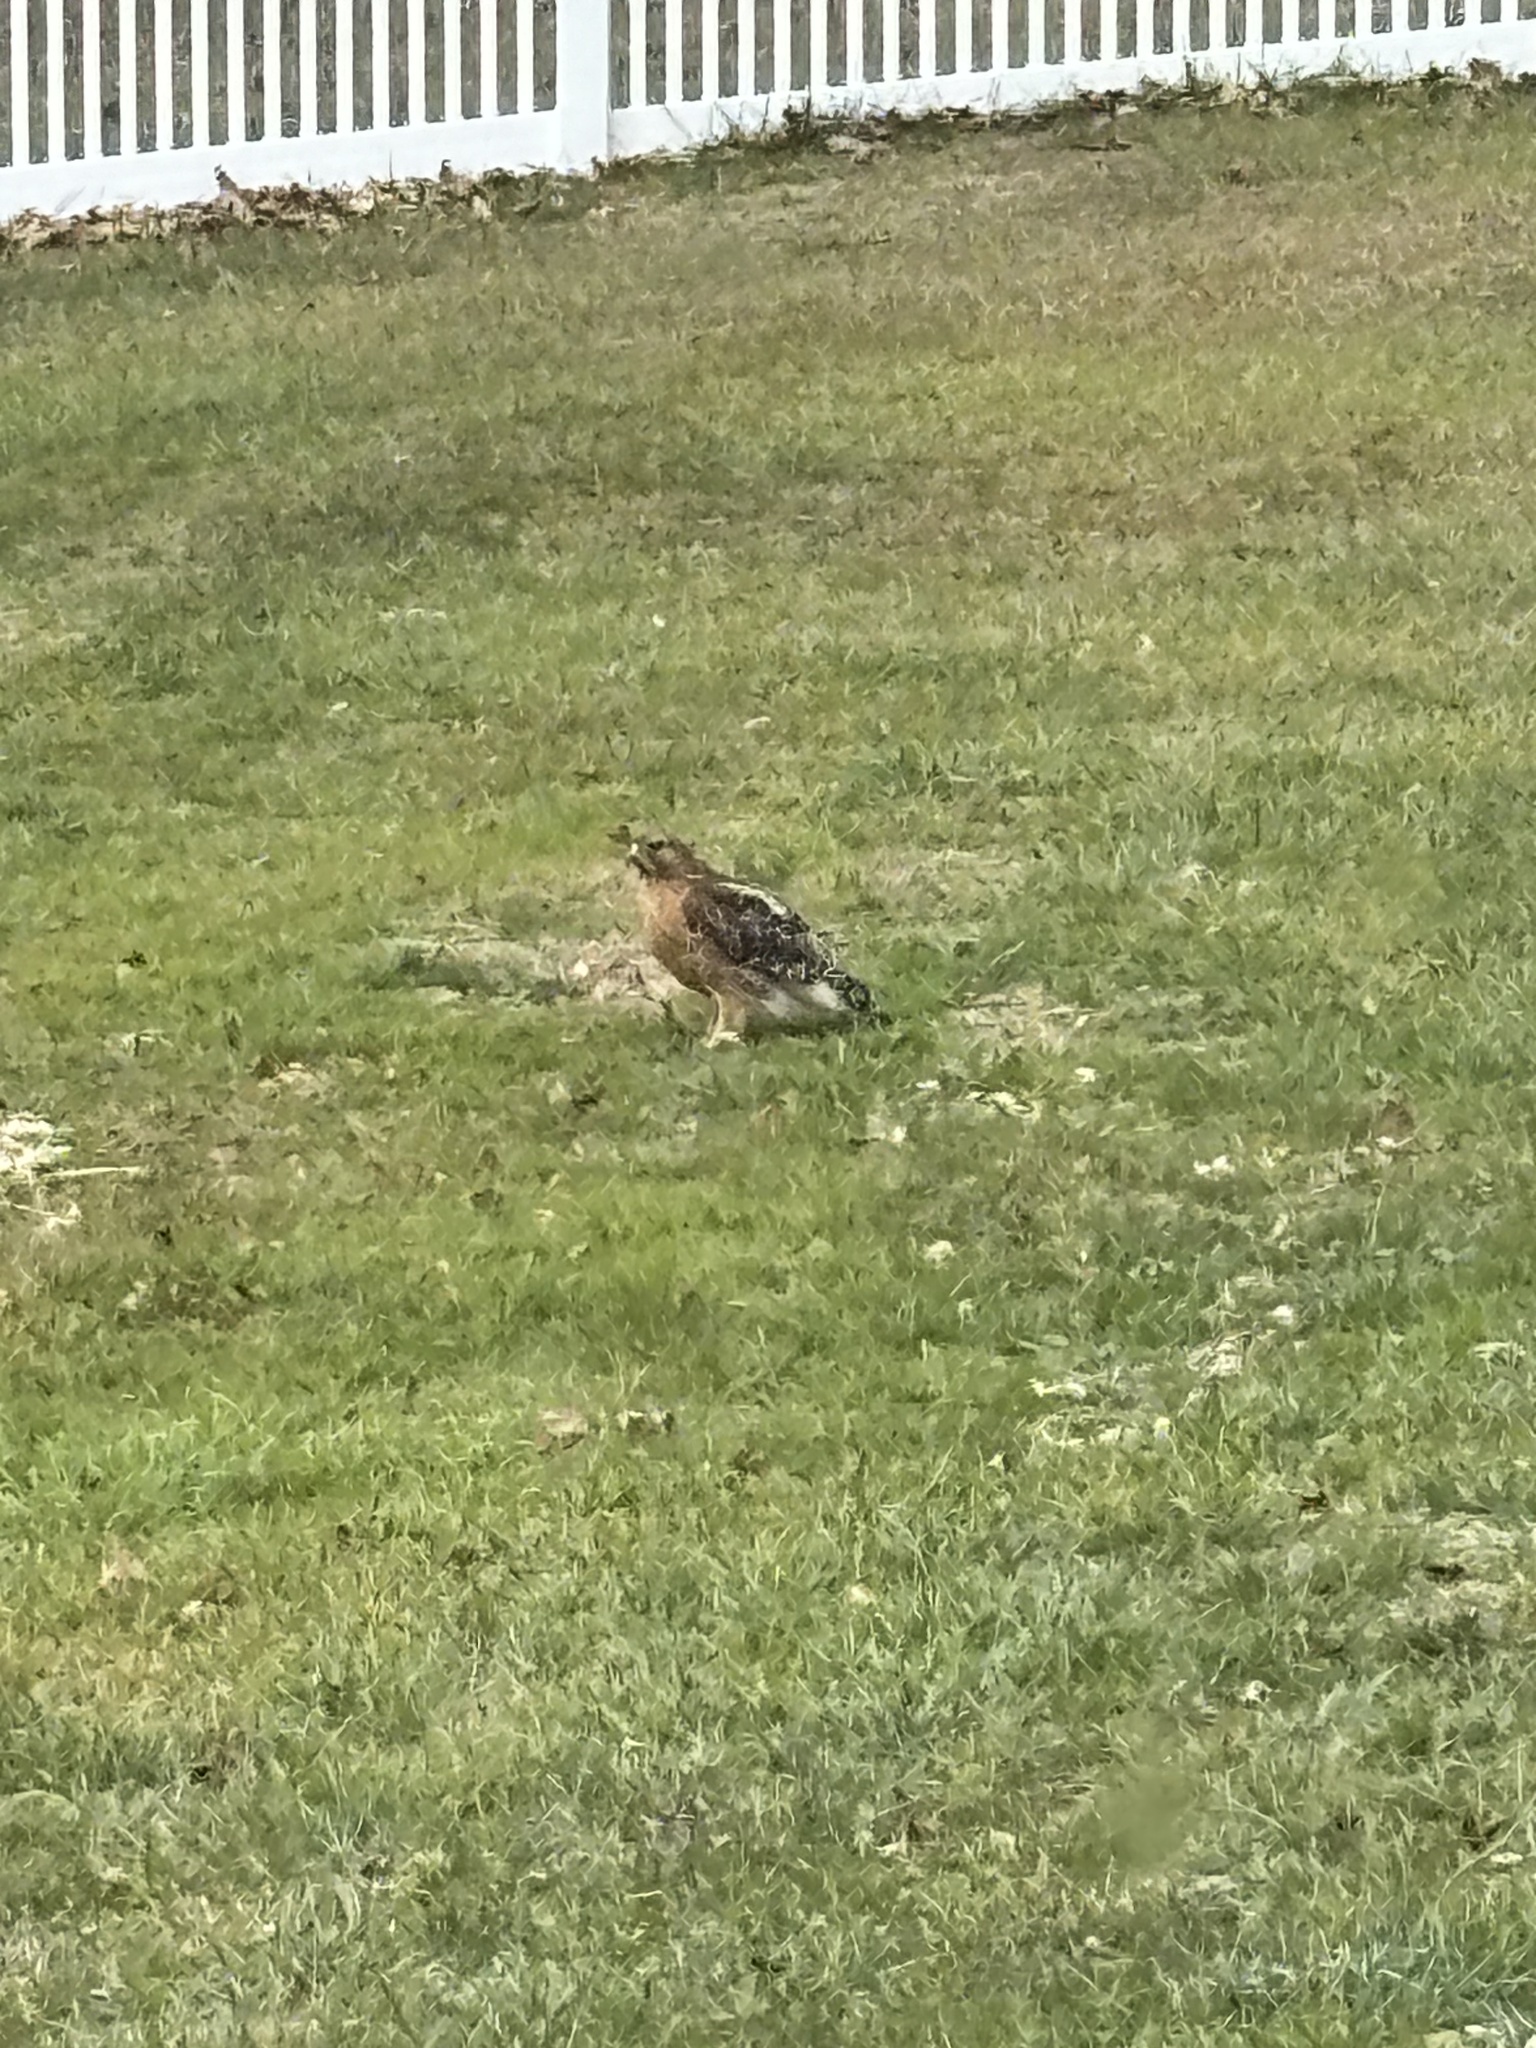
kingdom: Animalia
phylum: Chordata
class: Aves
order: Accipitriformes
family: Accipitridae
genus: Buteo
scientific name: Buteo lineatus
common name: Red-shouldered hawk
